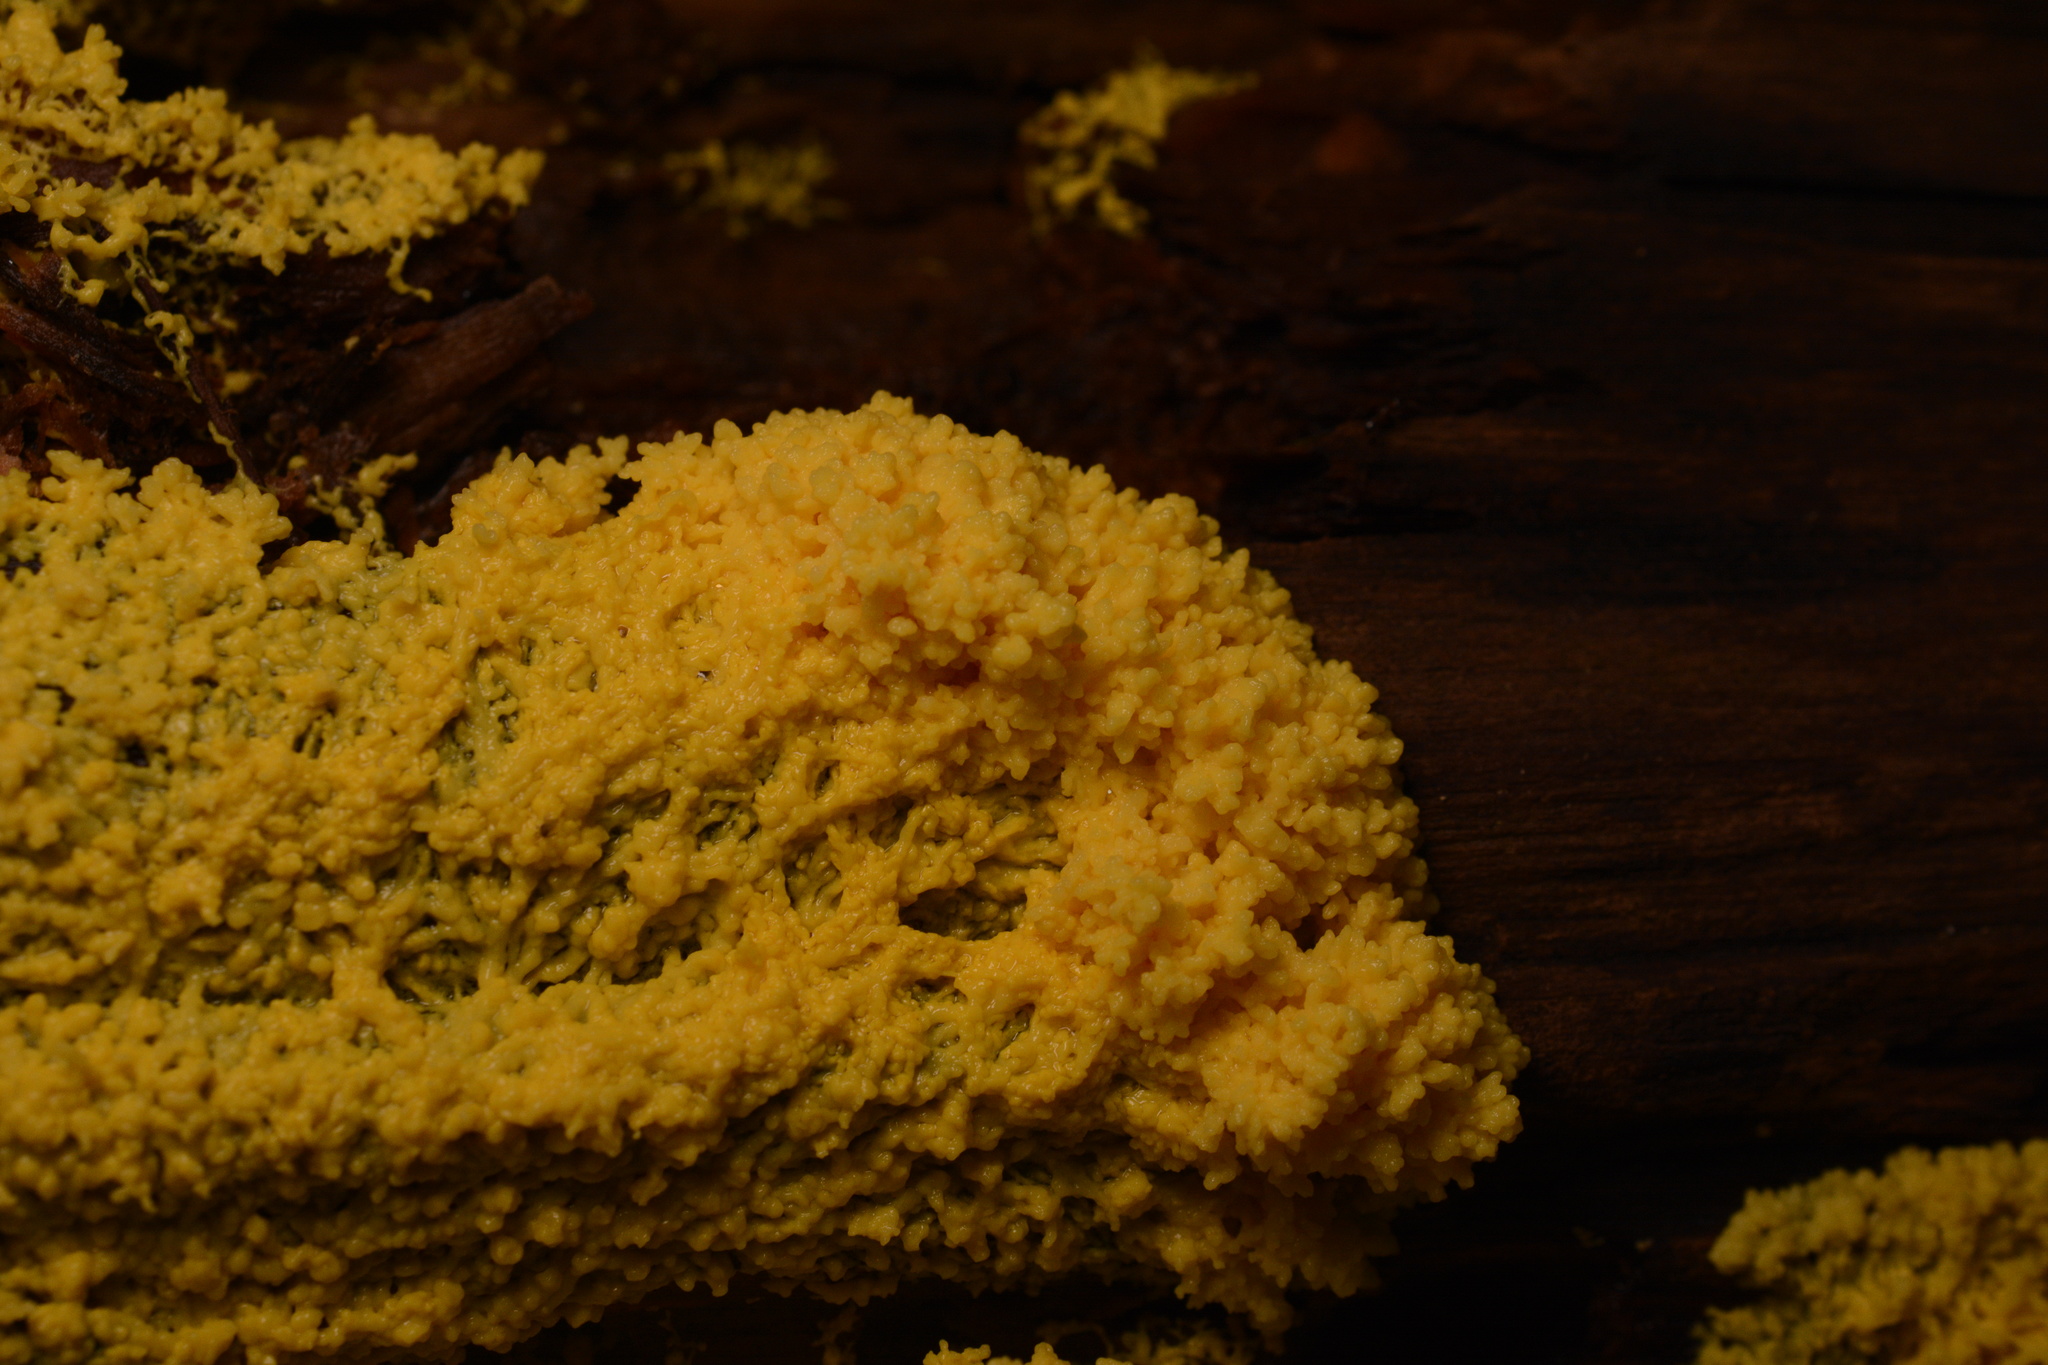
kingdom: Protozoa
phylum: Mycetozoa
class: Myxomycetes
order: Physarales
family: Physaraceae
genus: Fuligo
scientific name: Fuligo septica
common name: Dog vomit slime mold
